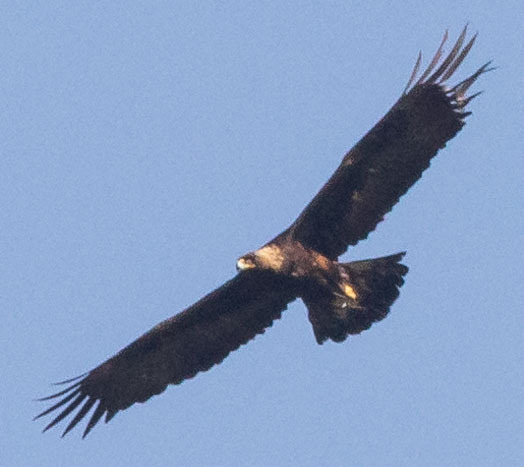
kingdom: Animalia
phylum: Chordata
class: Aves
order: Accipitriformes
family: Accipitridae
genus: Aquila
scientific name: Aquila chrysaetos
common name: Golden eagle
